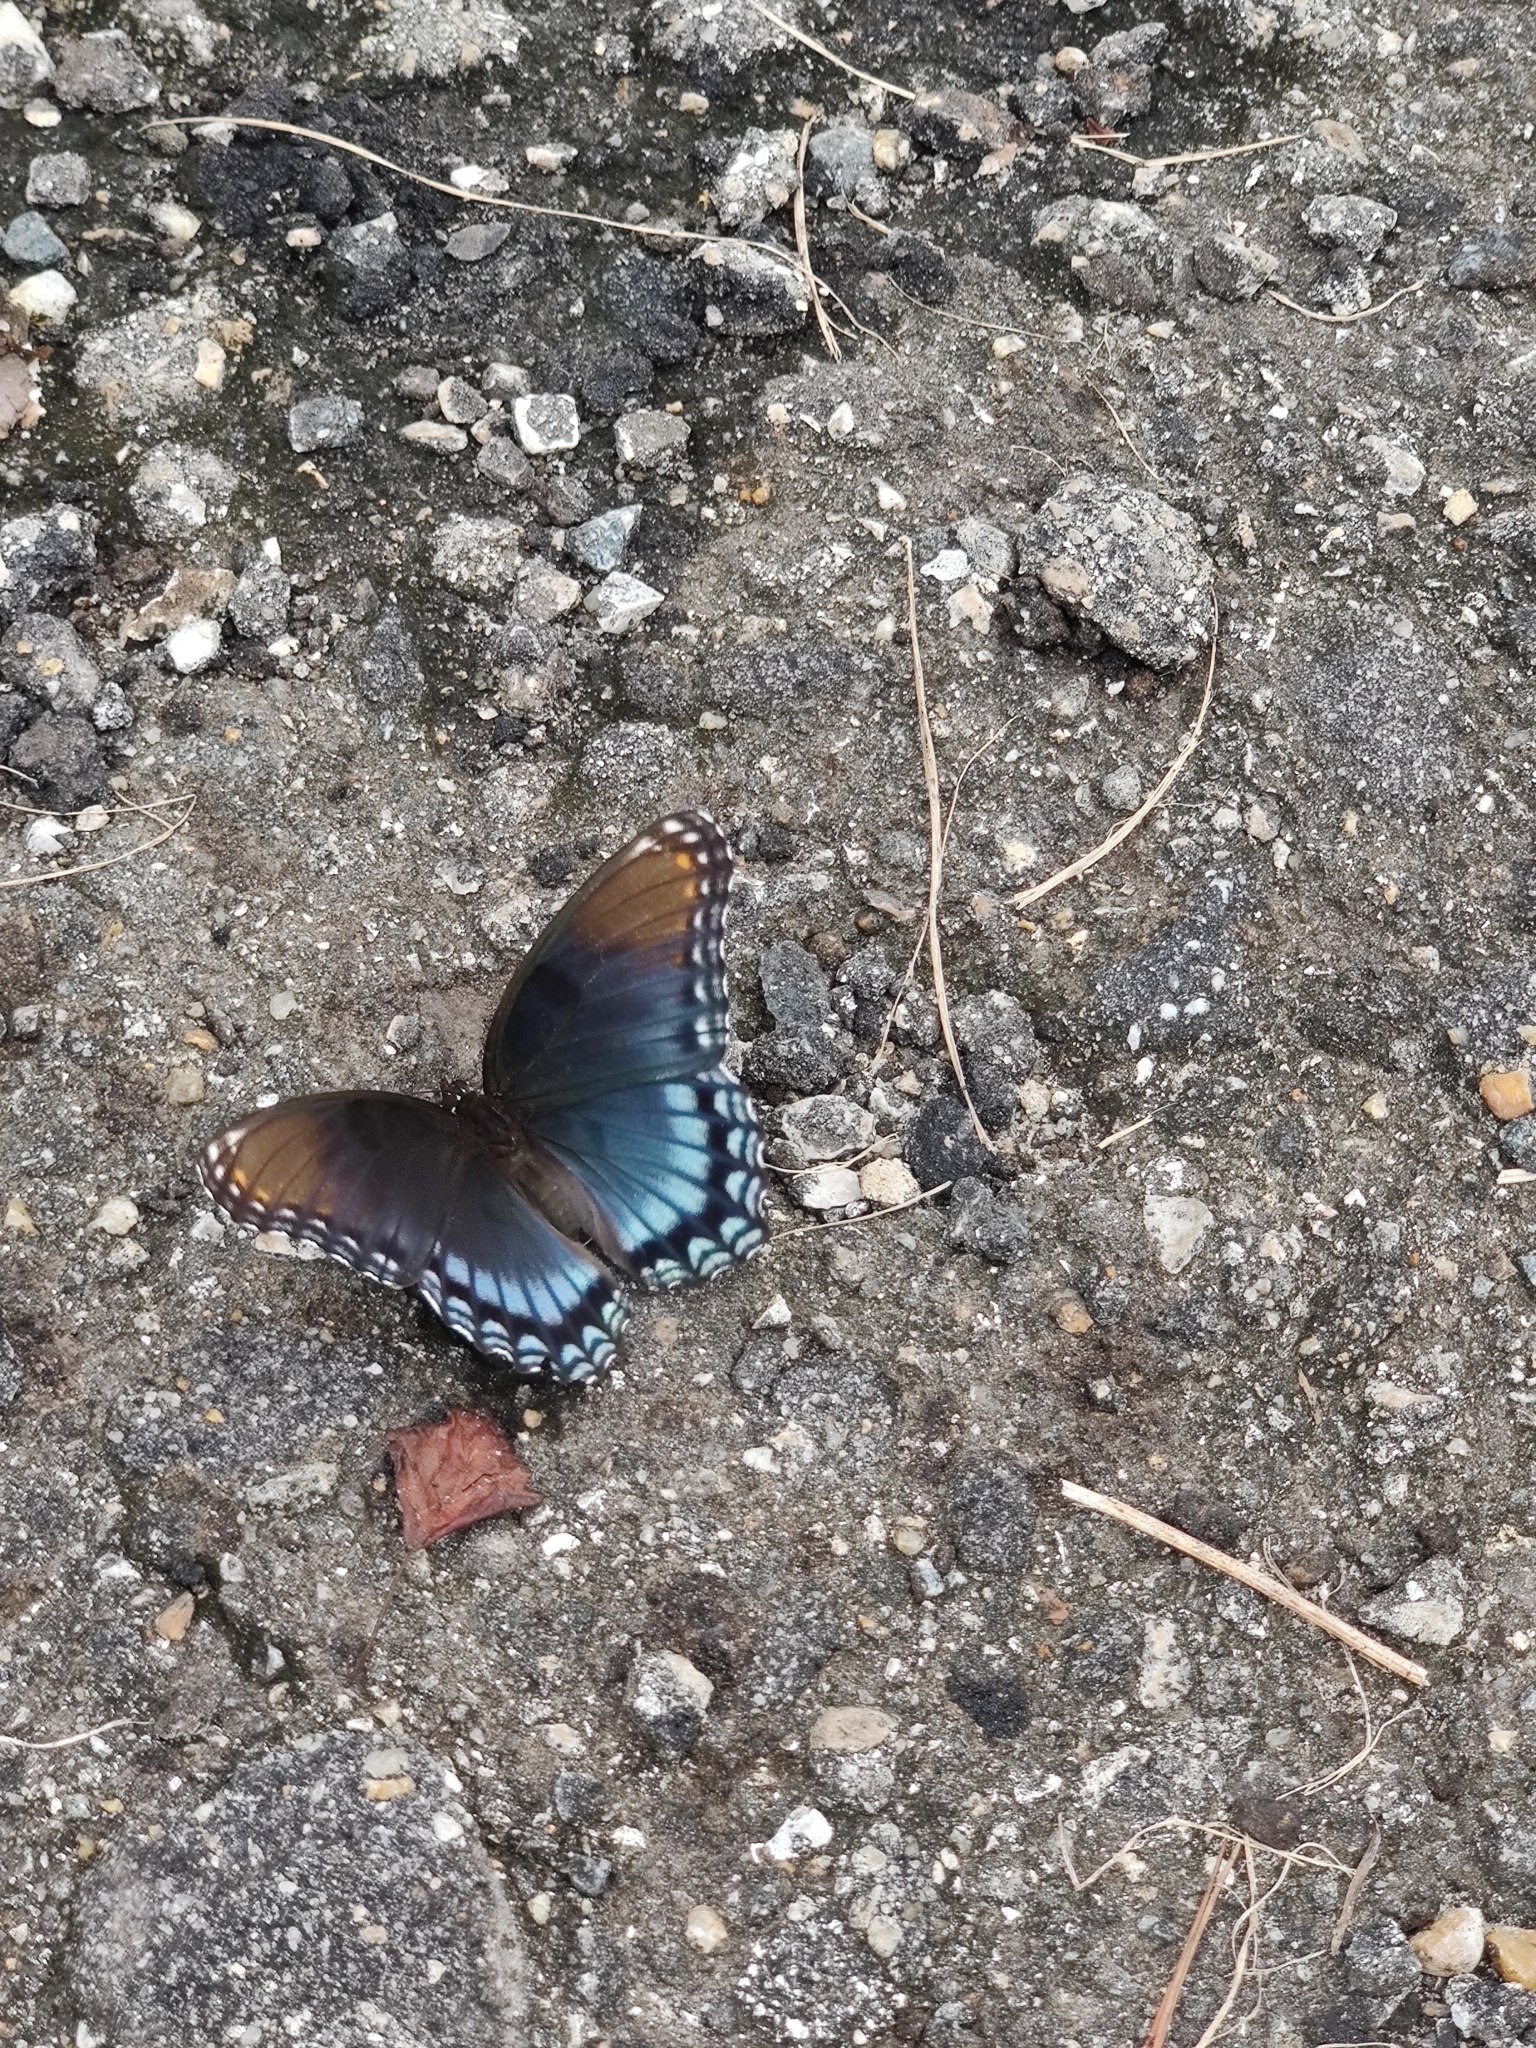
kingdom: Animalia
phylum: Arthropoda
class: Insecta
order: Lepidoptera
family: Nymphalidae
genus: Limenitis
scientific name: Limenitis astyanax
